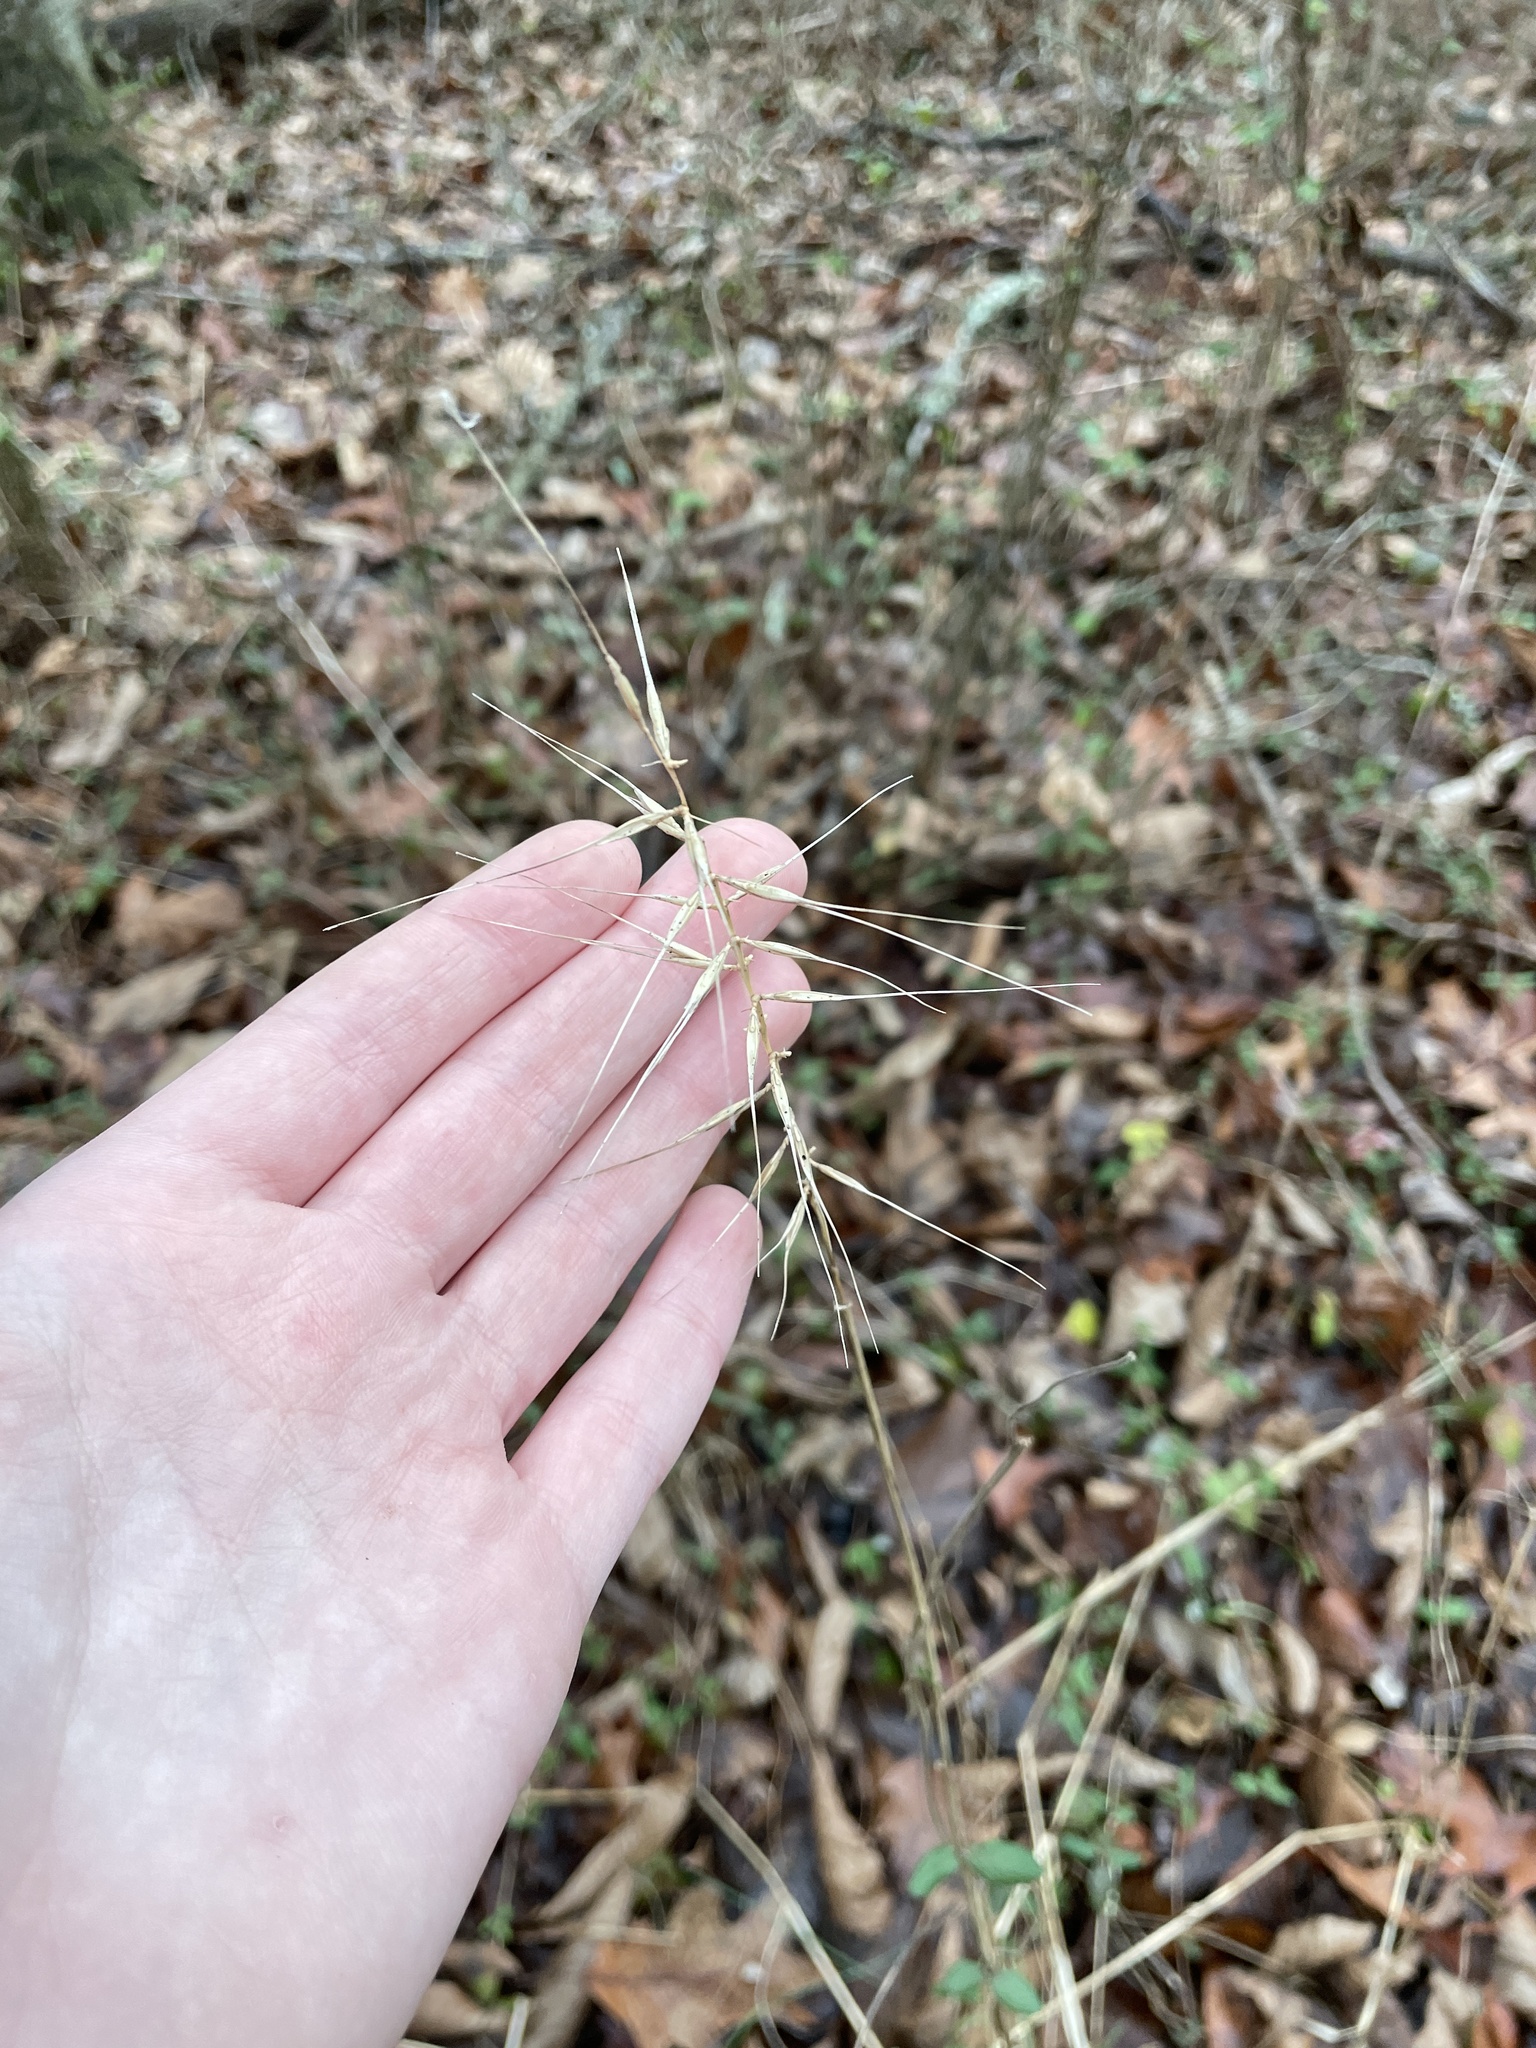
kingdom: Plantae
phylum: Tracheophyta
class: Liliopsida
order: Poales
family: Poaceae
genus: Elymus
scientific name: Elymus hystrix
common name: Bottlebrush grass
